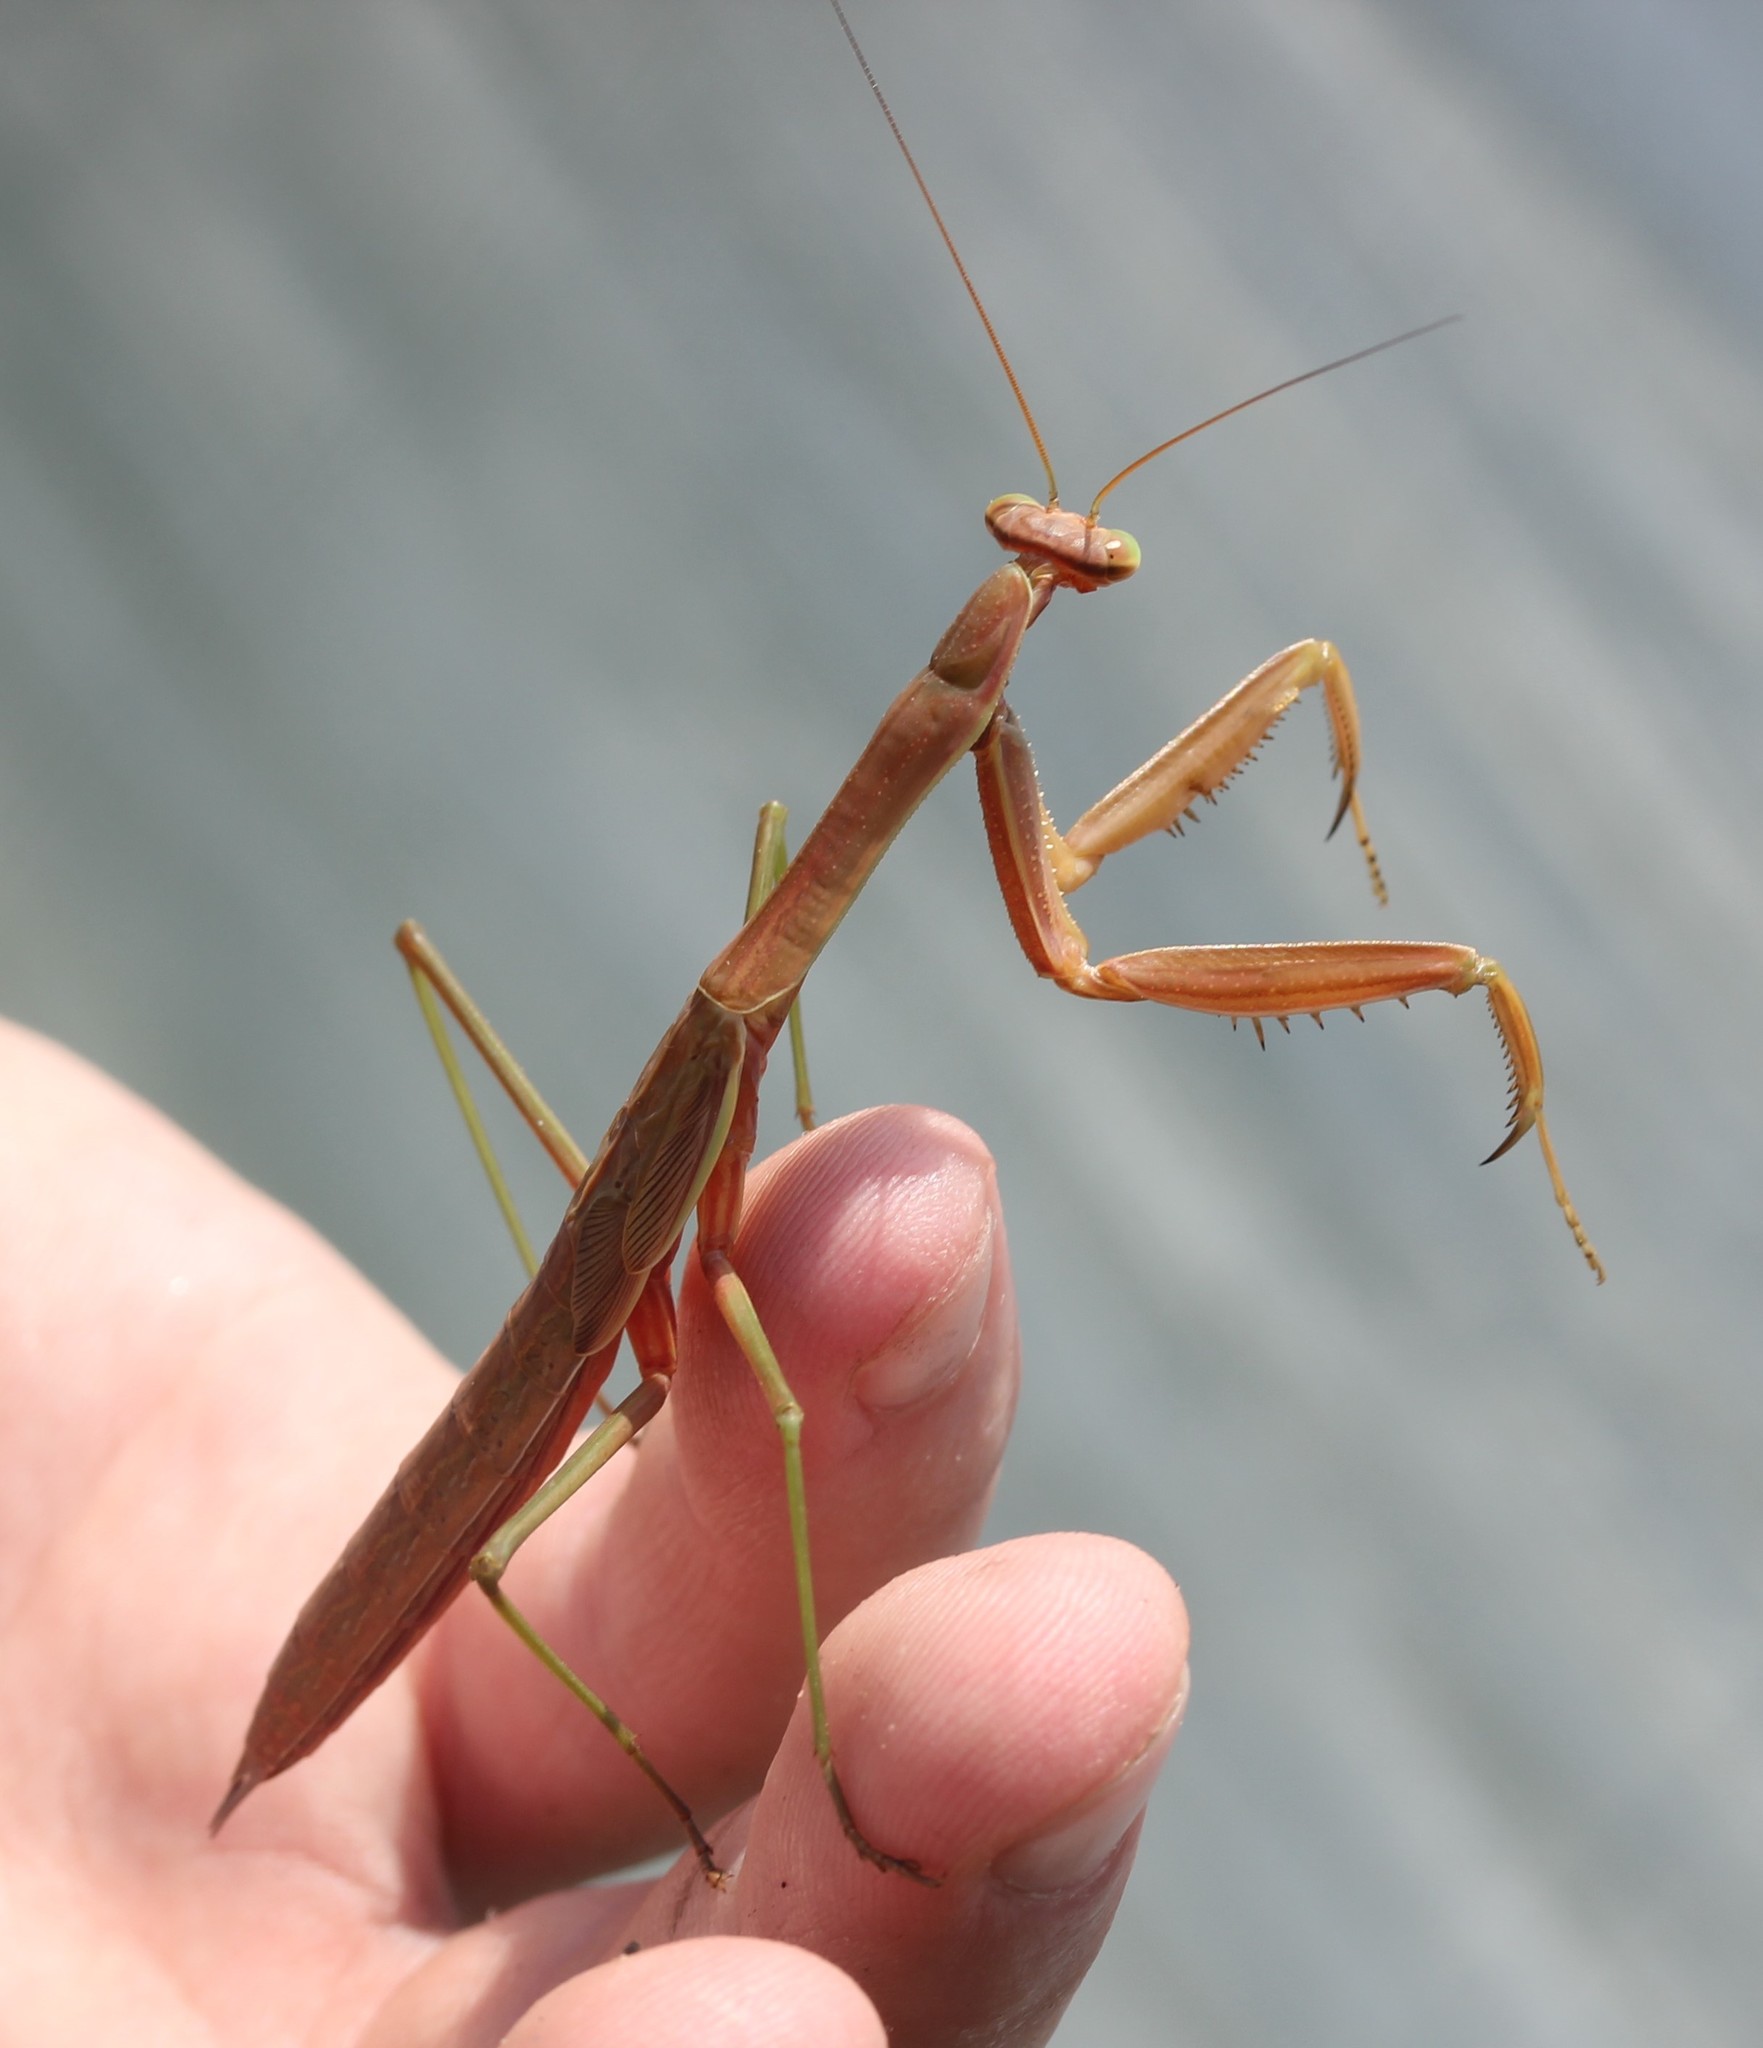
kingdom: Animalia
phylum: Arthropoda
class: Insecta
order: Mantodea
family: Mantidae
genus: Tenodera
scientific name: Tenodera sinensis
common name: Chinese mantis
